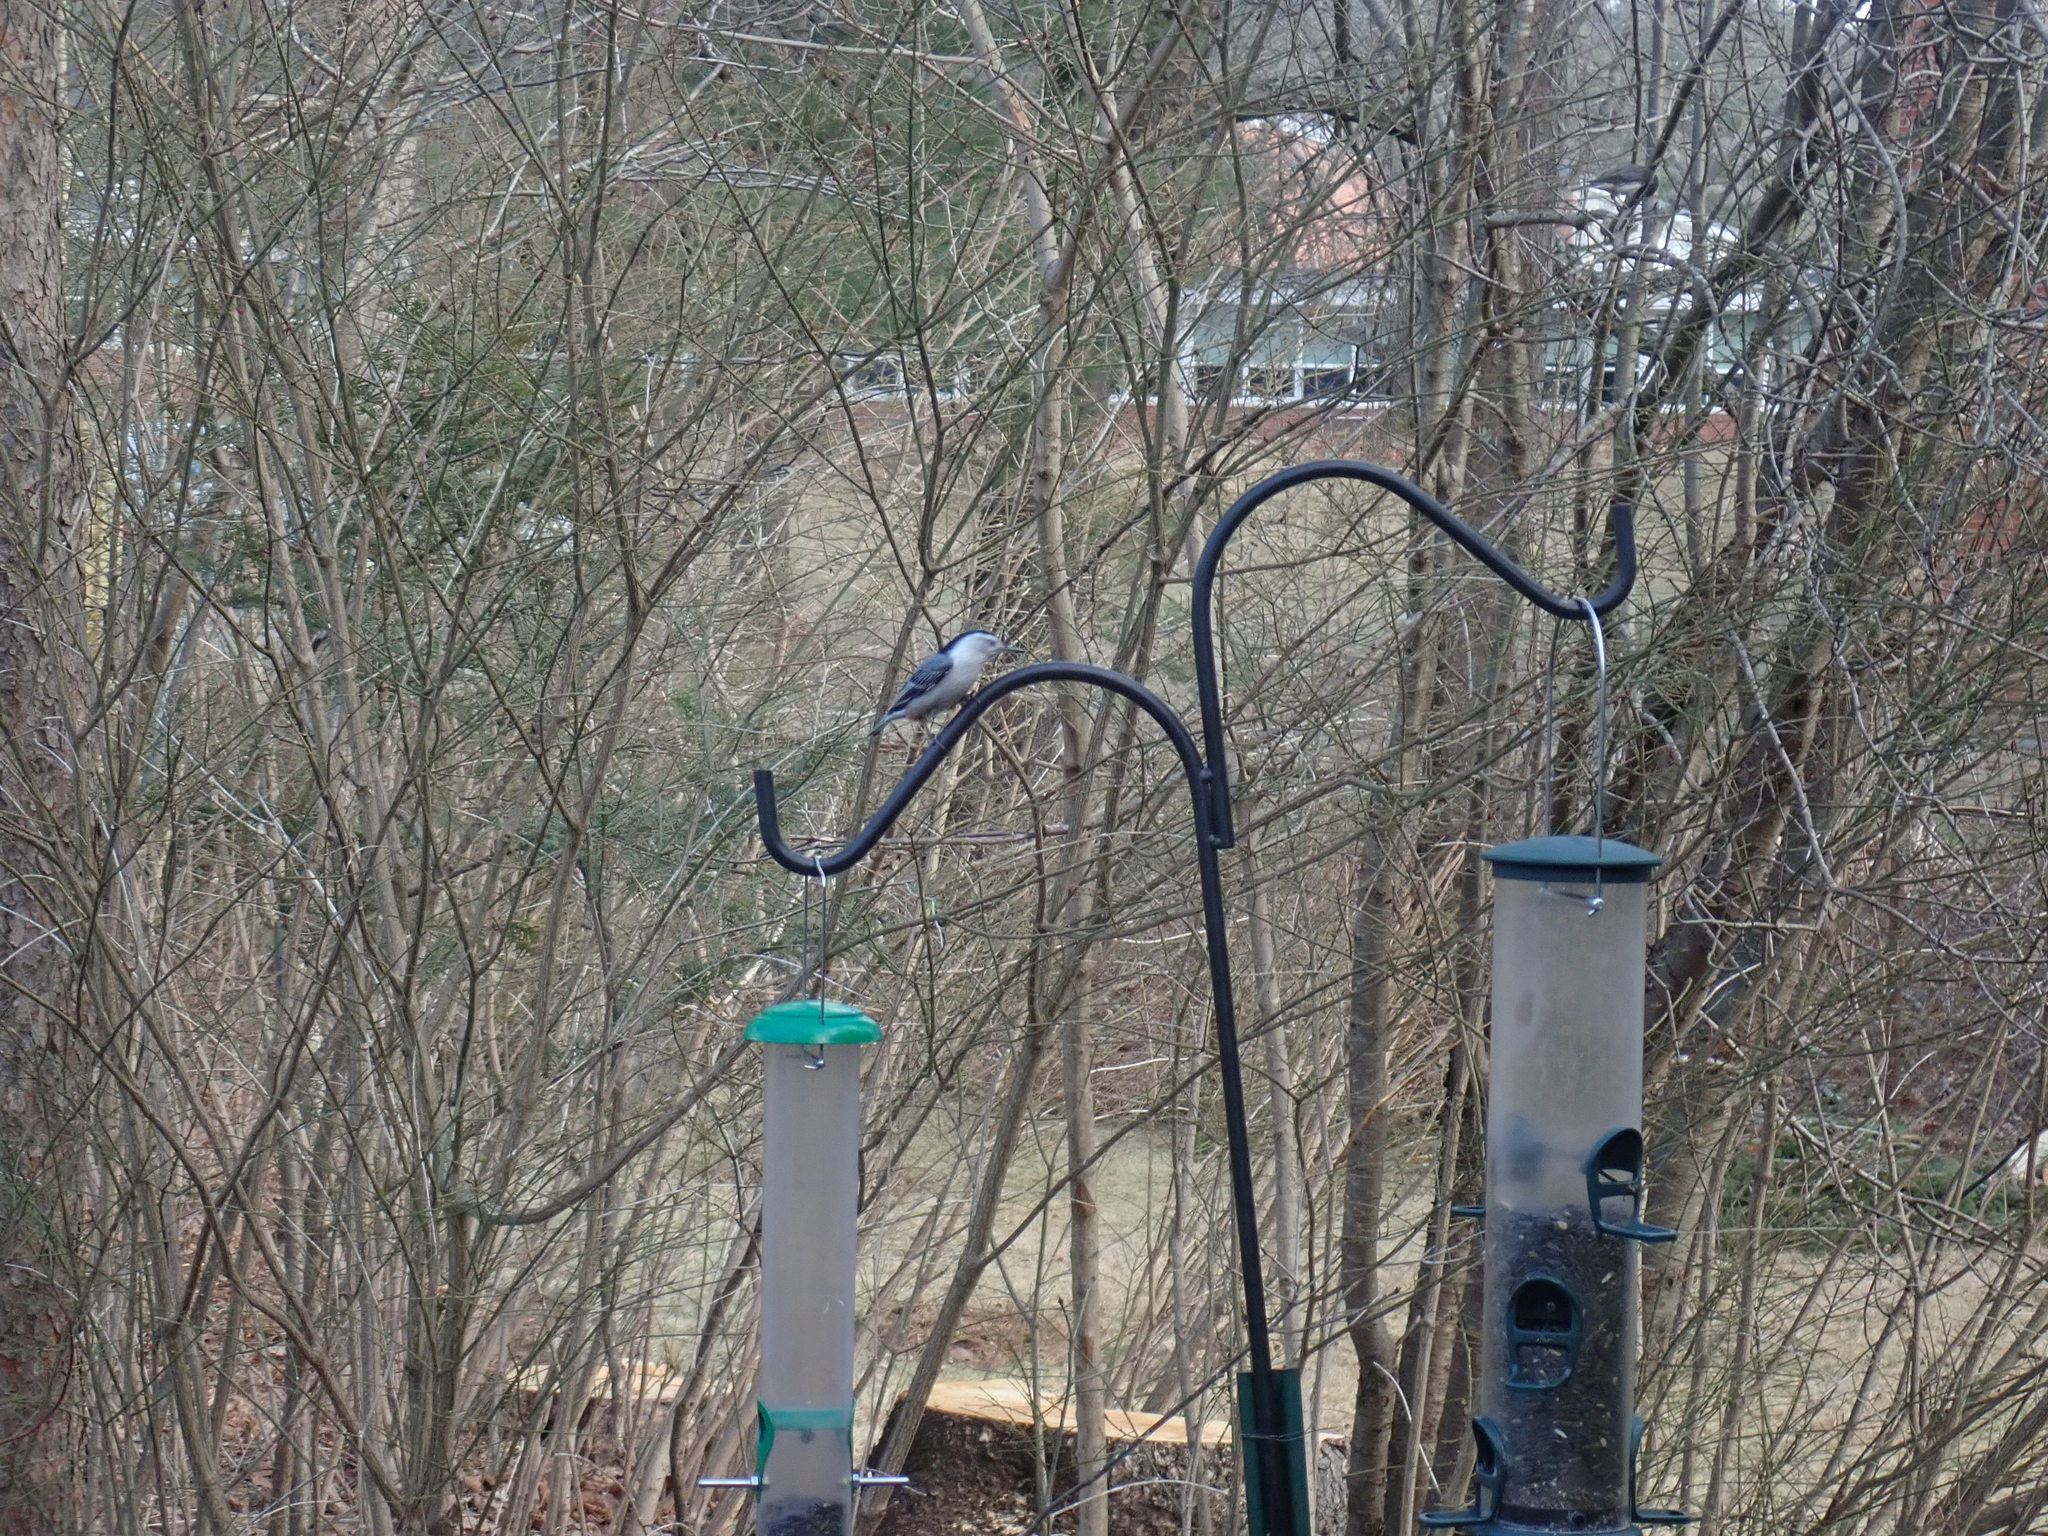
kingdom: Animalia
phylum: Chordata
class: Aves
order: Passeriformes
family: Sittidae
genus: Sitta
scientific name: Sitta carolinensis
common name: White-breasted nuthatch
